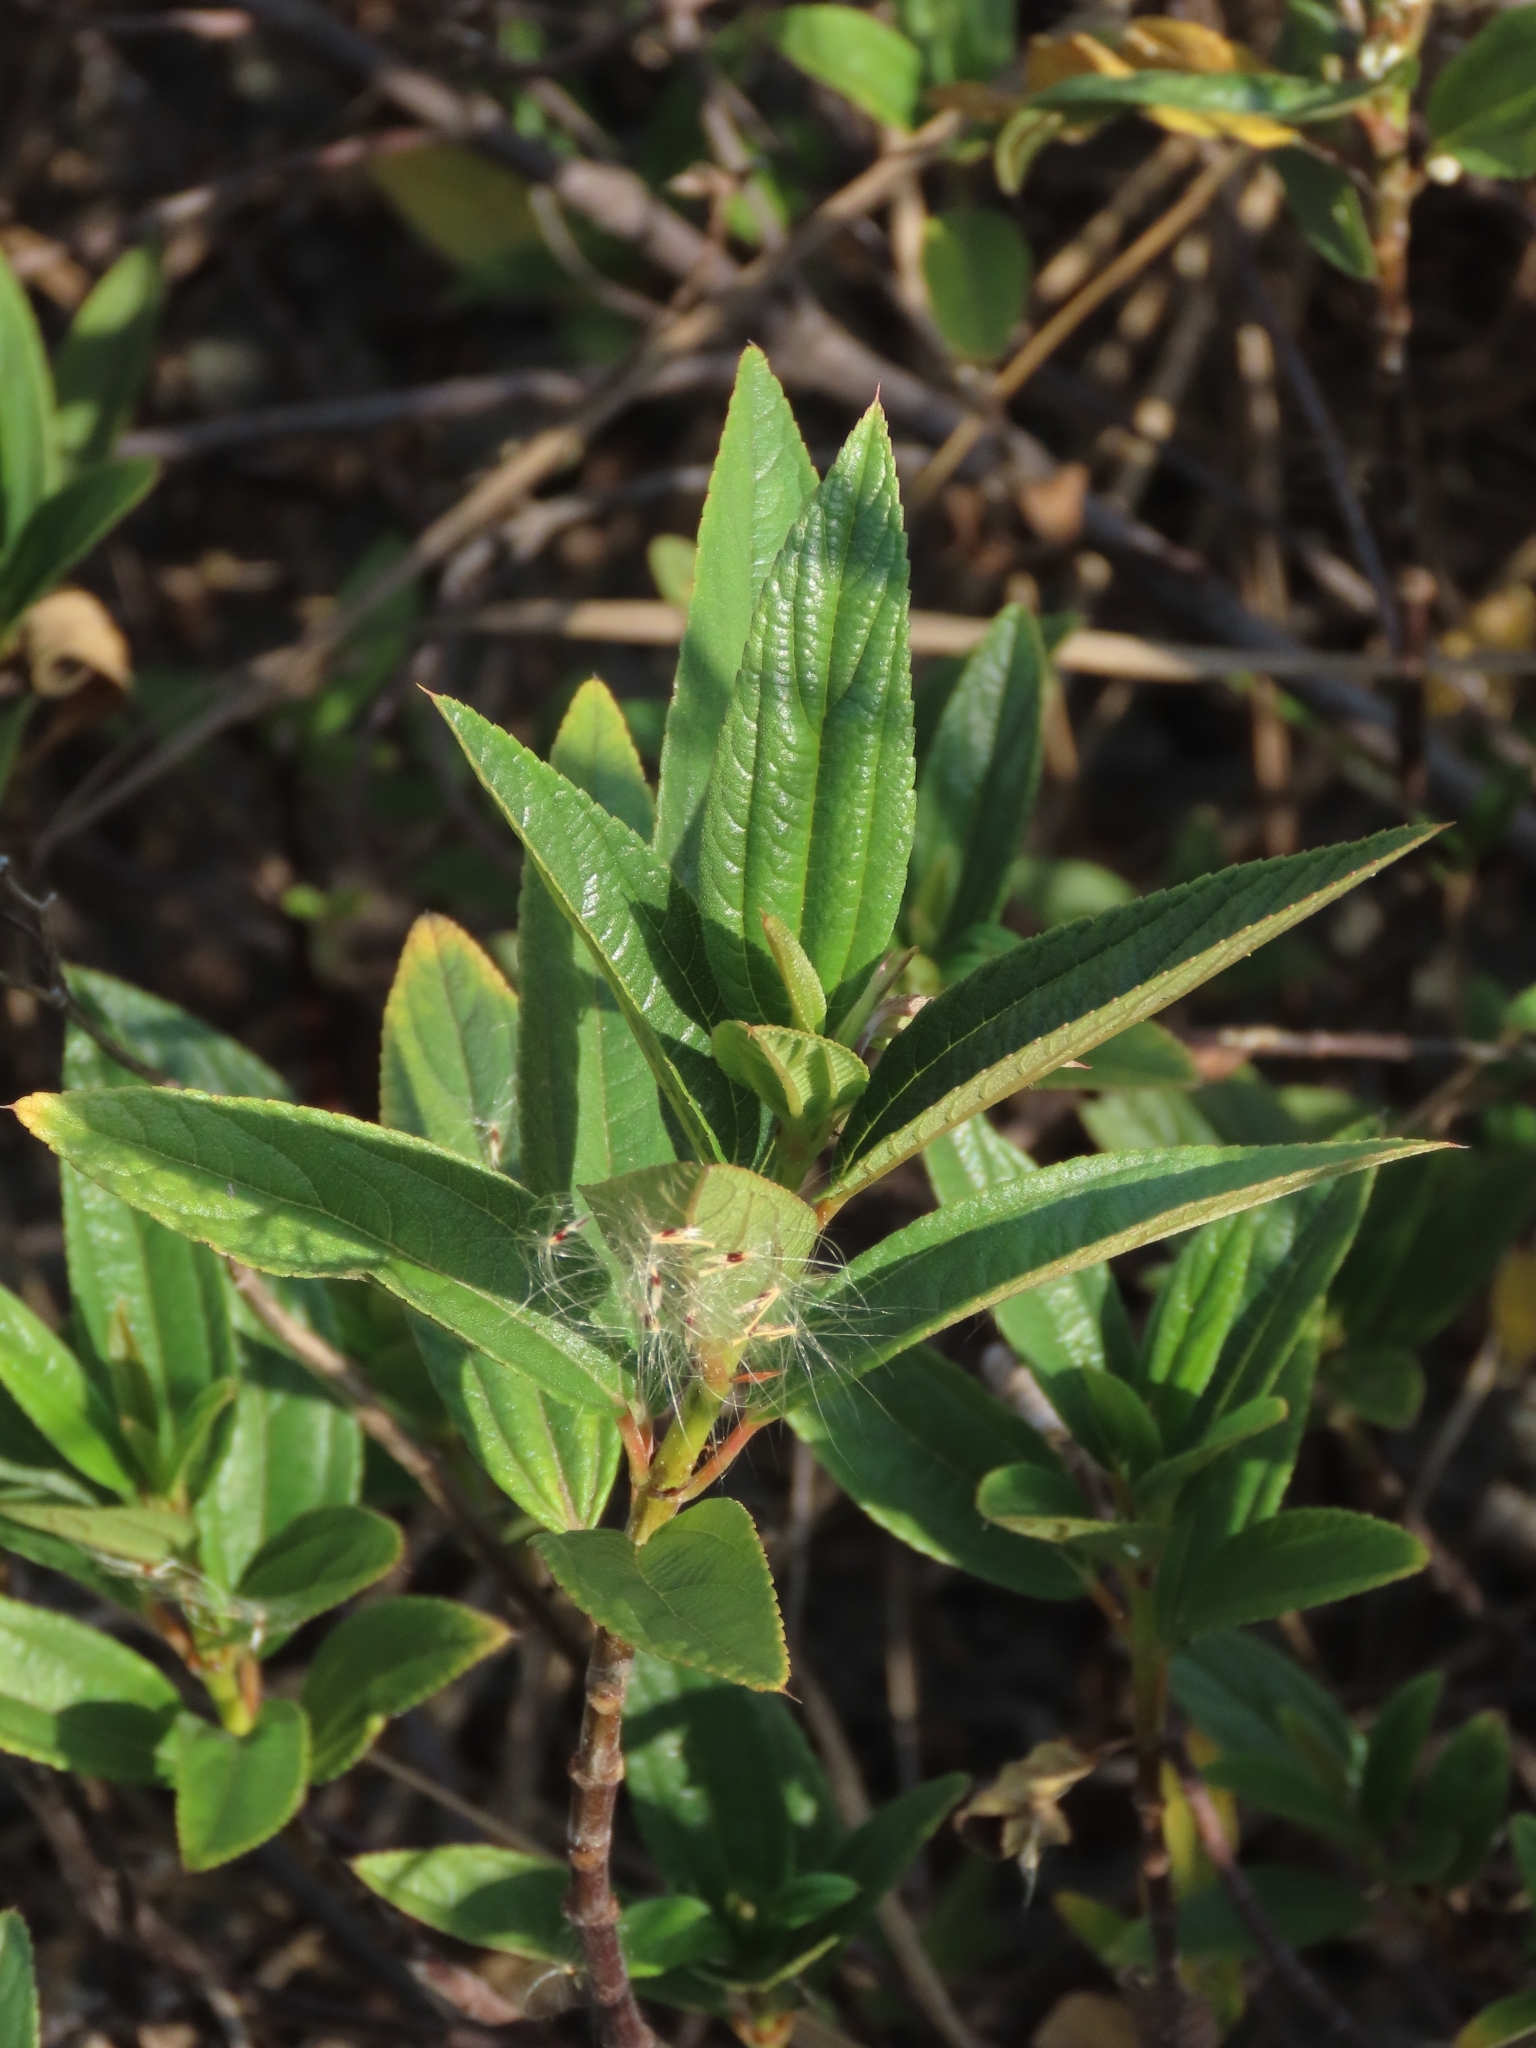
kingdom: Plantae
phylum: Tracheophyta
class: Magnoliopsida
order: Rosales
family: Urticaceae
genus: Boehmeria
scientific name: Boehmeria densiflora
